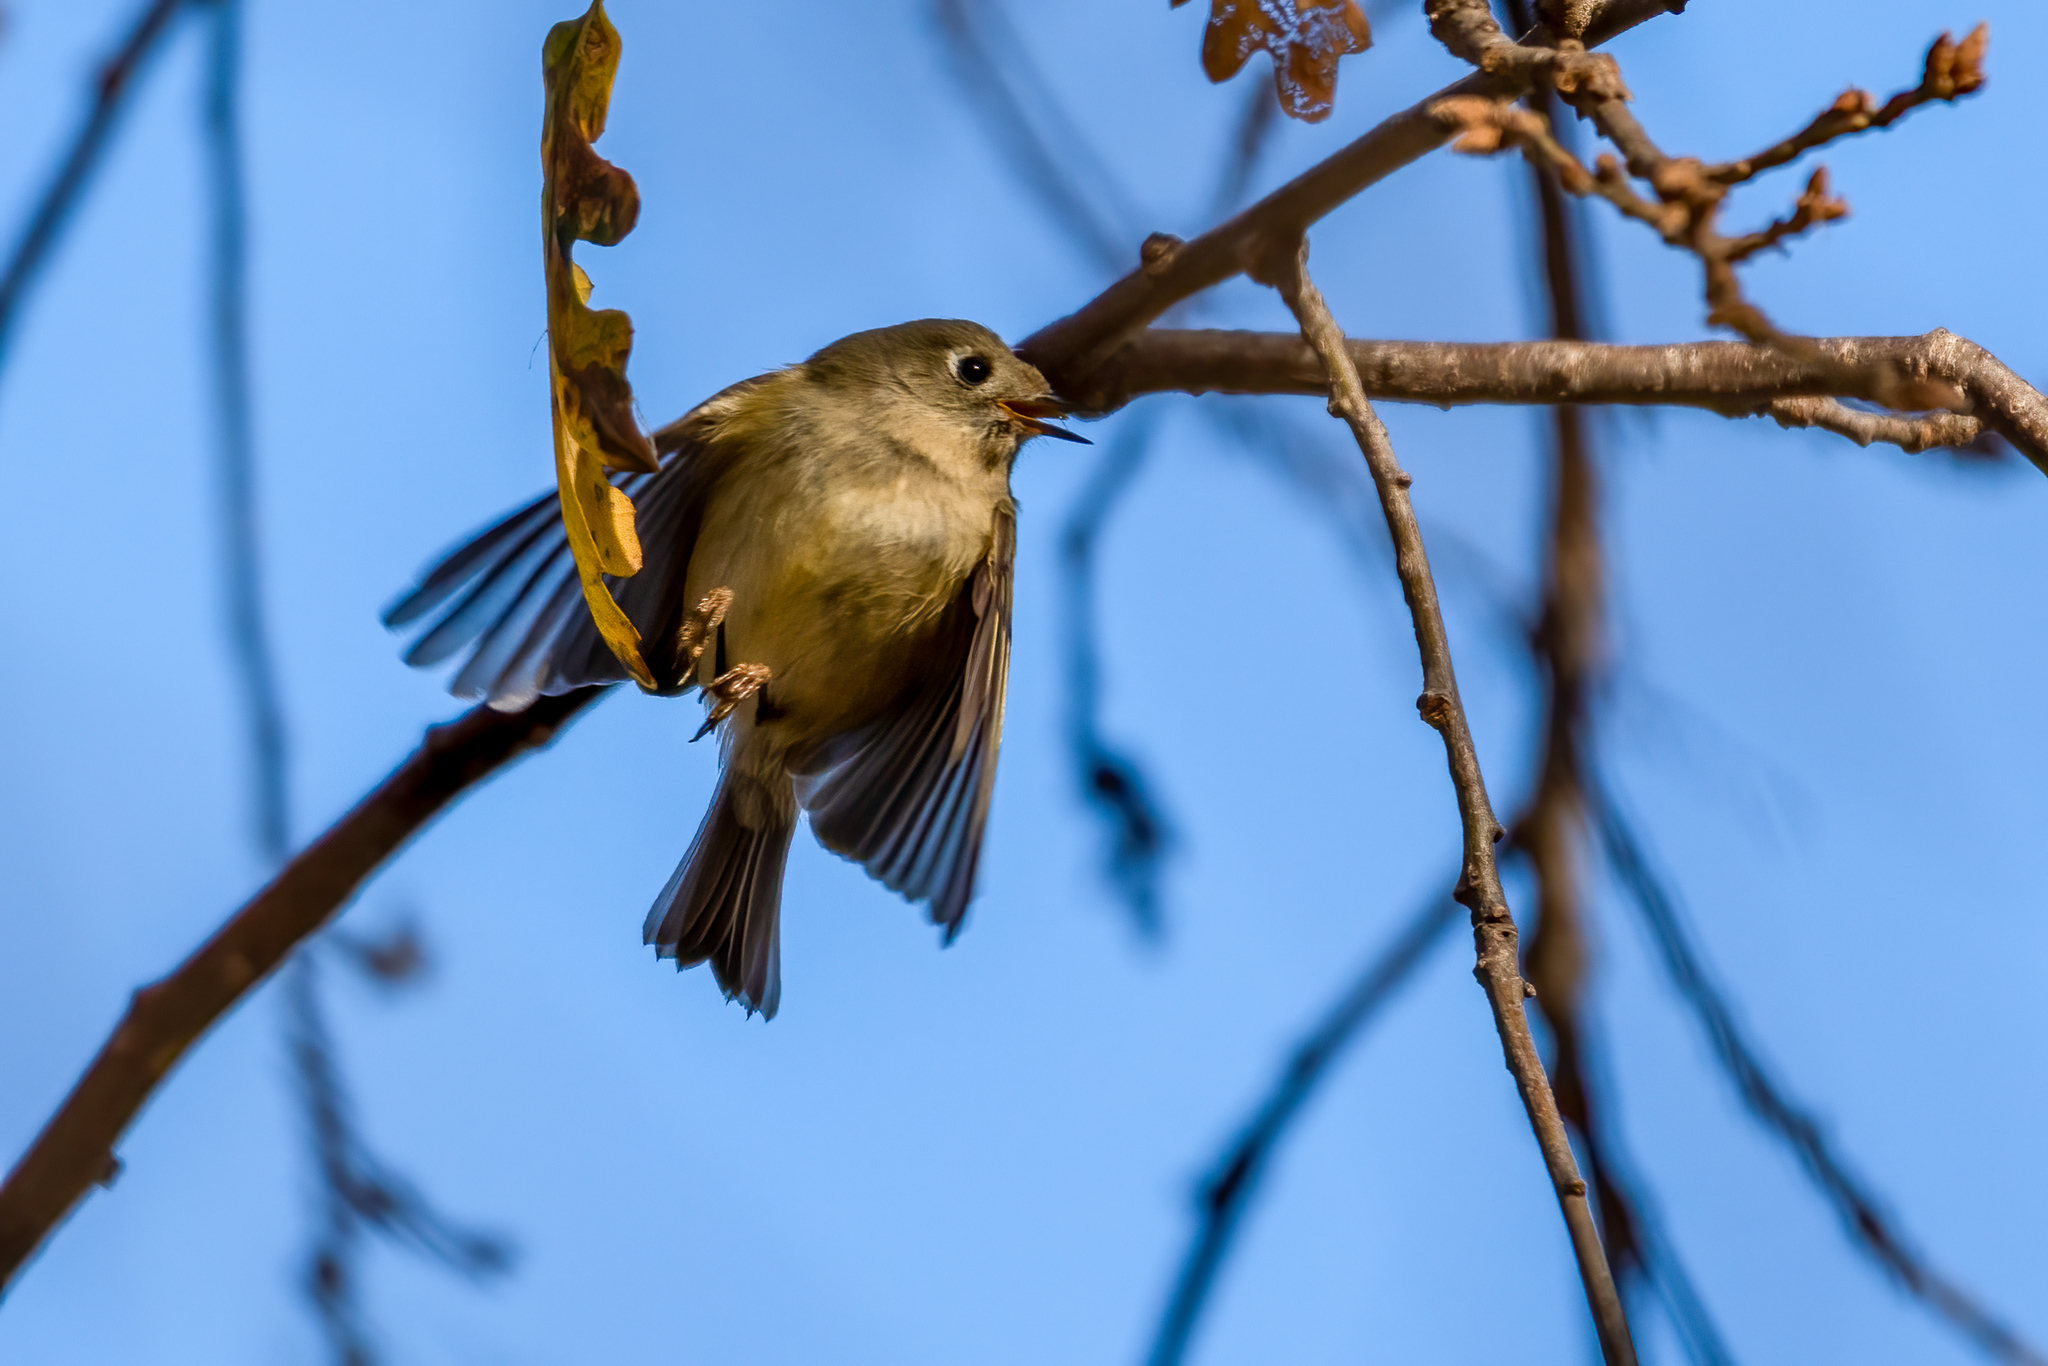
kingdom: Animalia
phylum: Chordata
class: Aves
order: Passeriformes
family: Regulidae
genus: Regulus
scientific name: Regulus calendula
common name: Ruby-crowned kinglet
